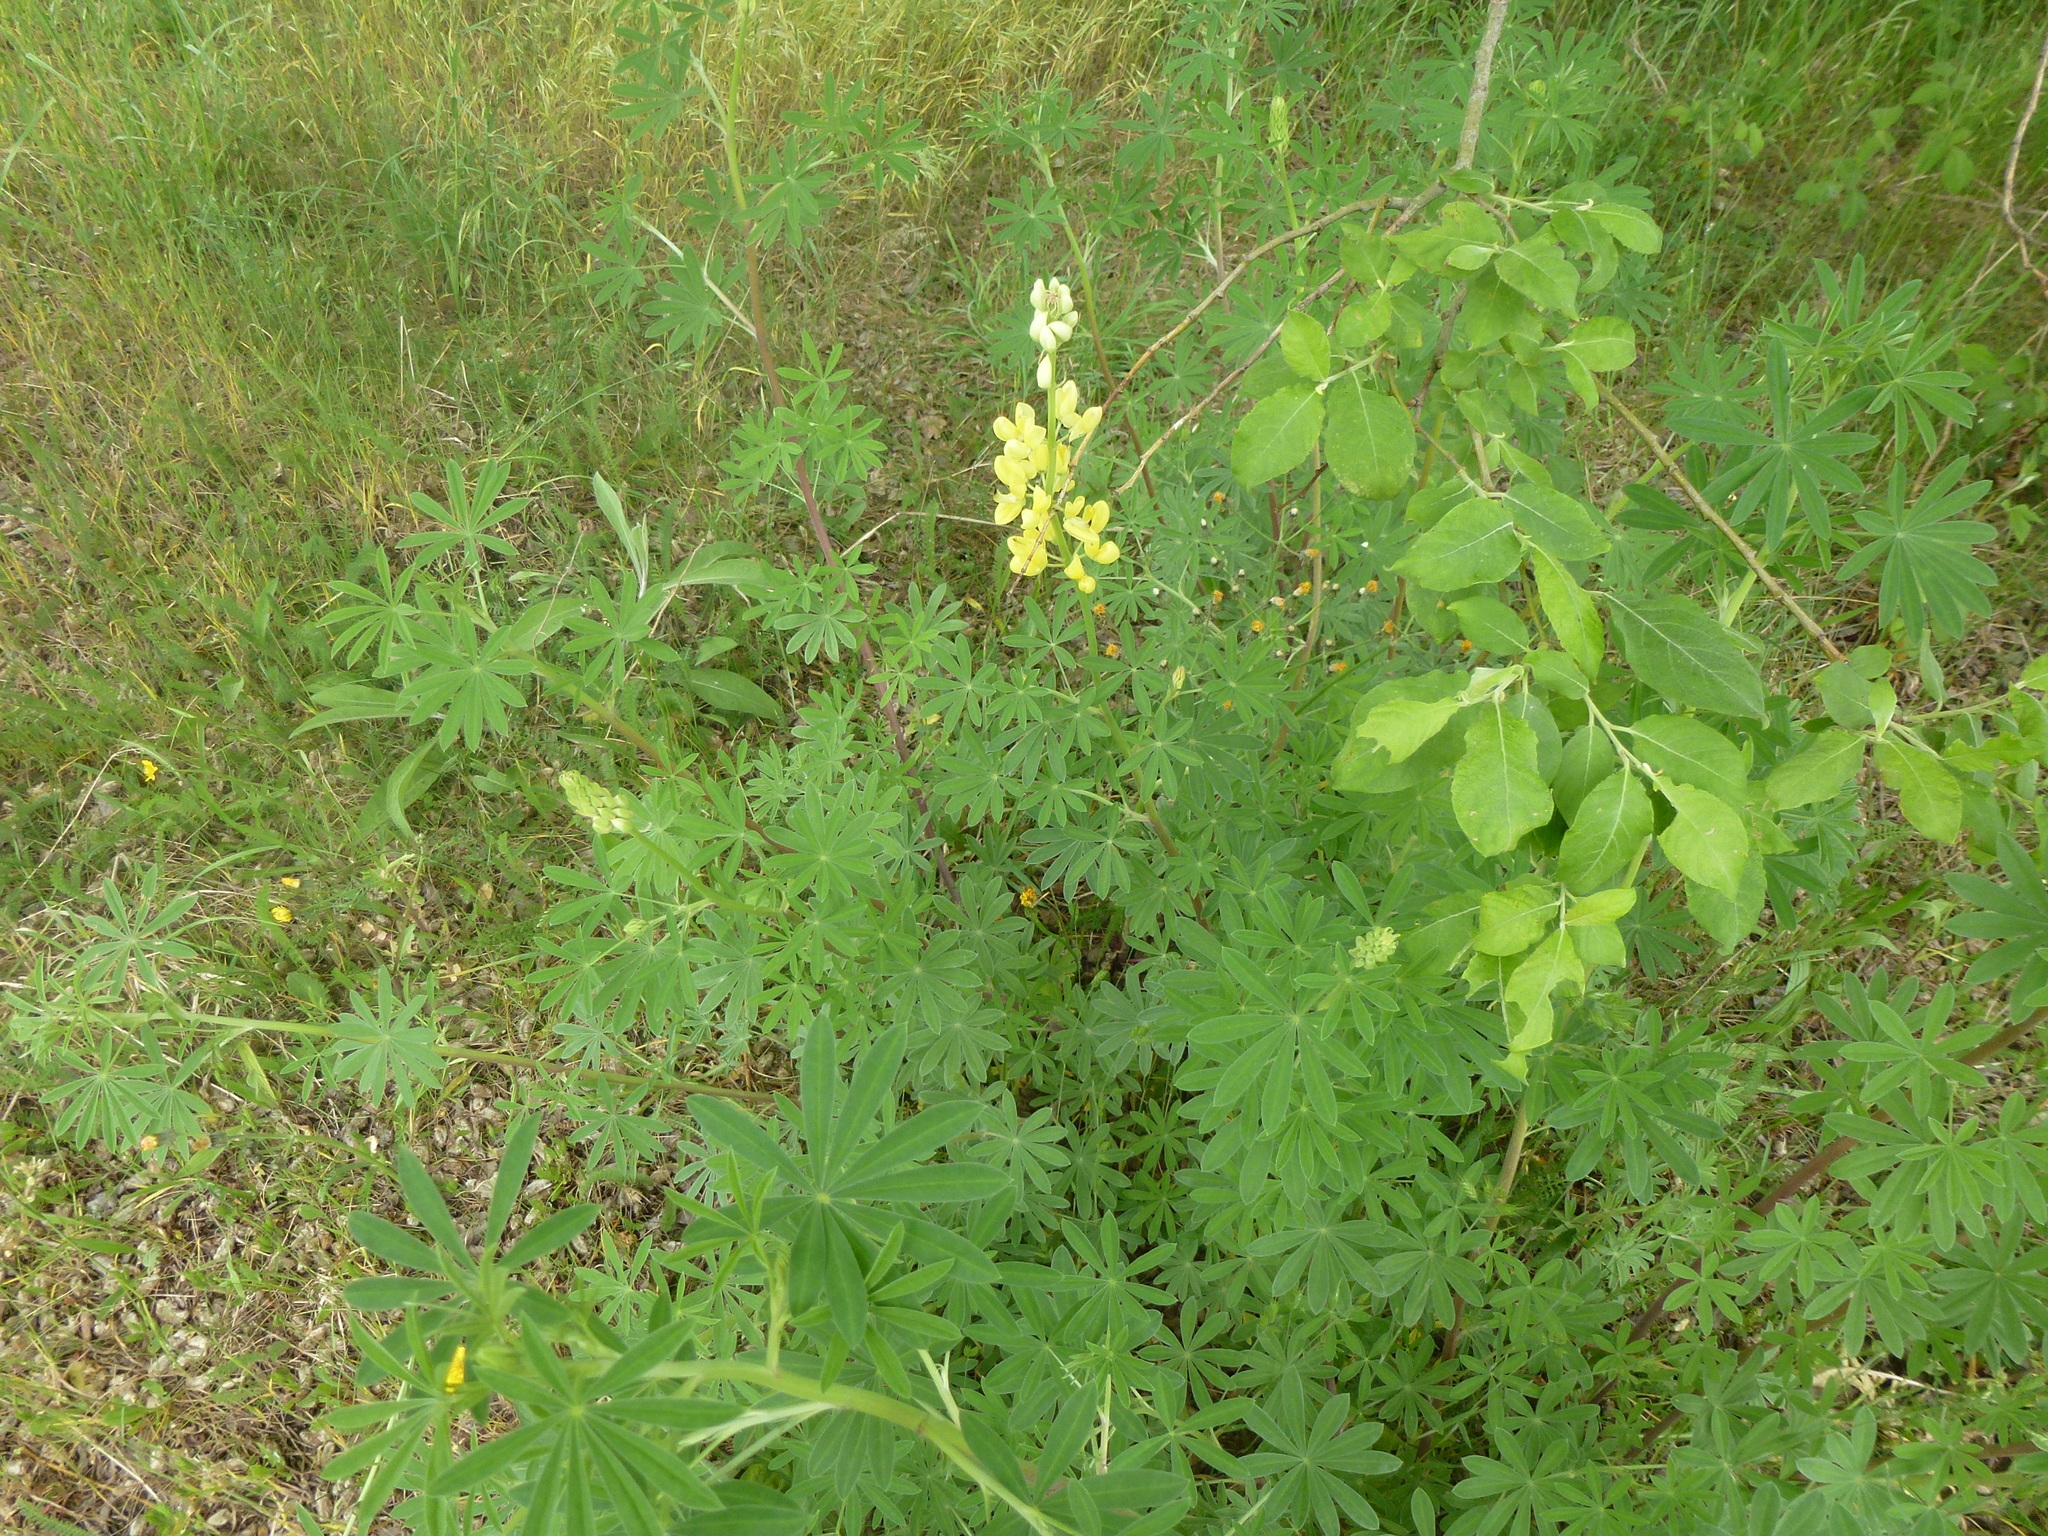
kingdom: Plantae
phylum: Tracheophyta
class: Magnoliopsida
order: Fabales
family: Fabaceae
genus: Lupinus
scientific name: Lupinus arboreus
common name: Yellow bush lupine
